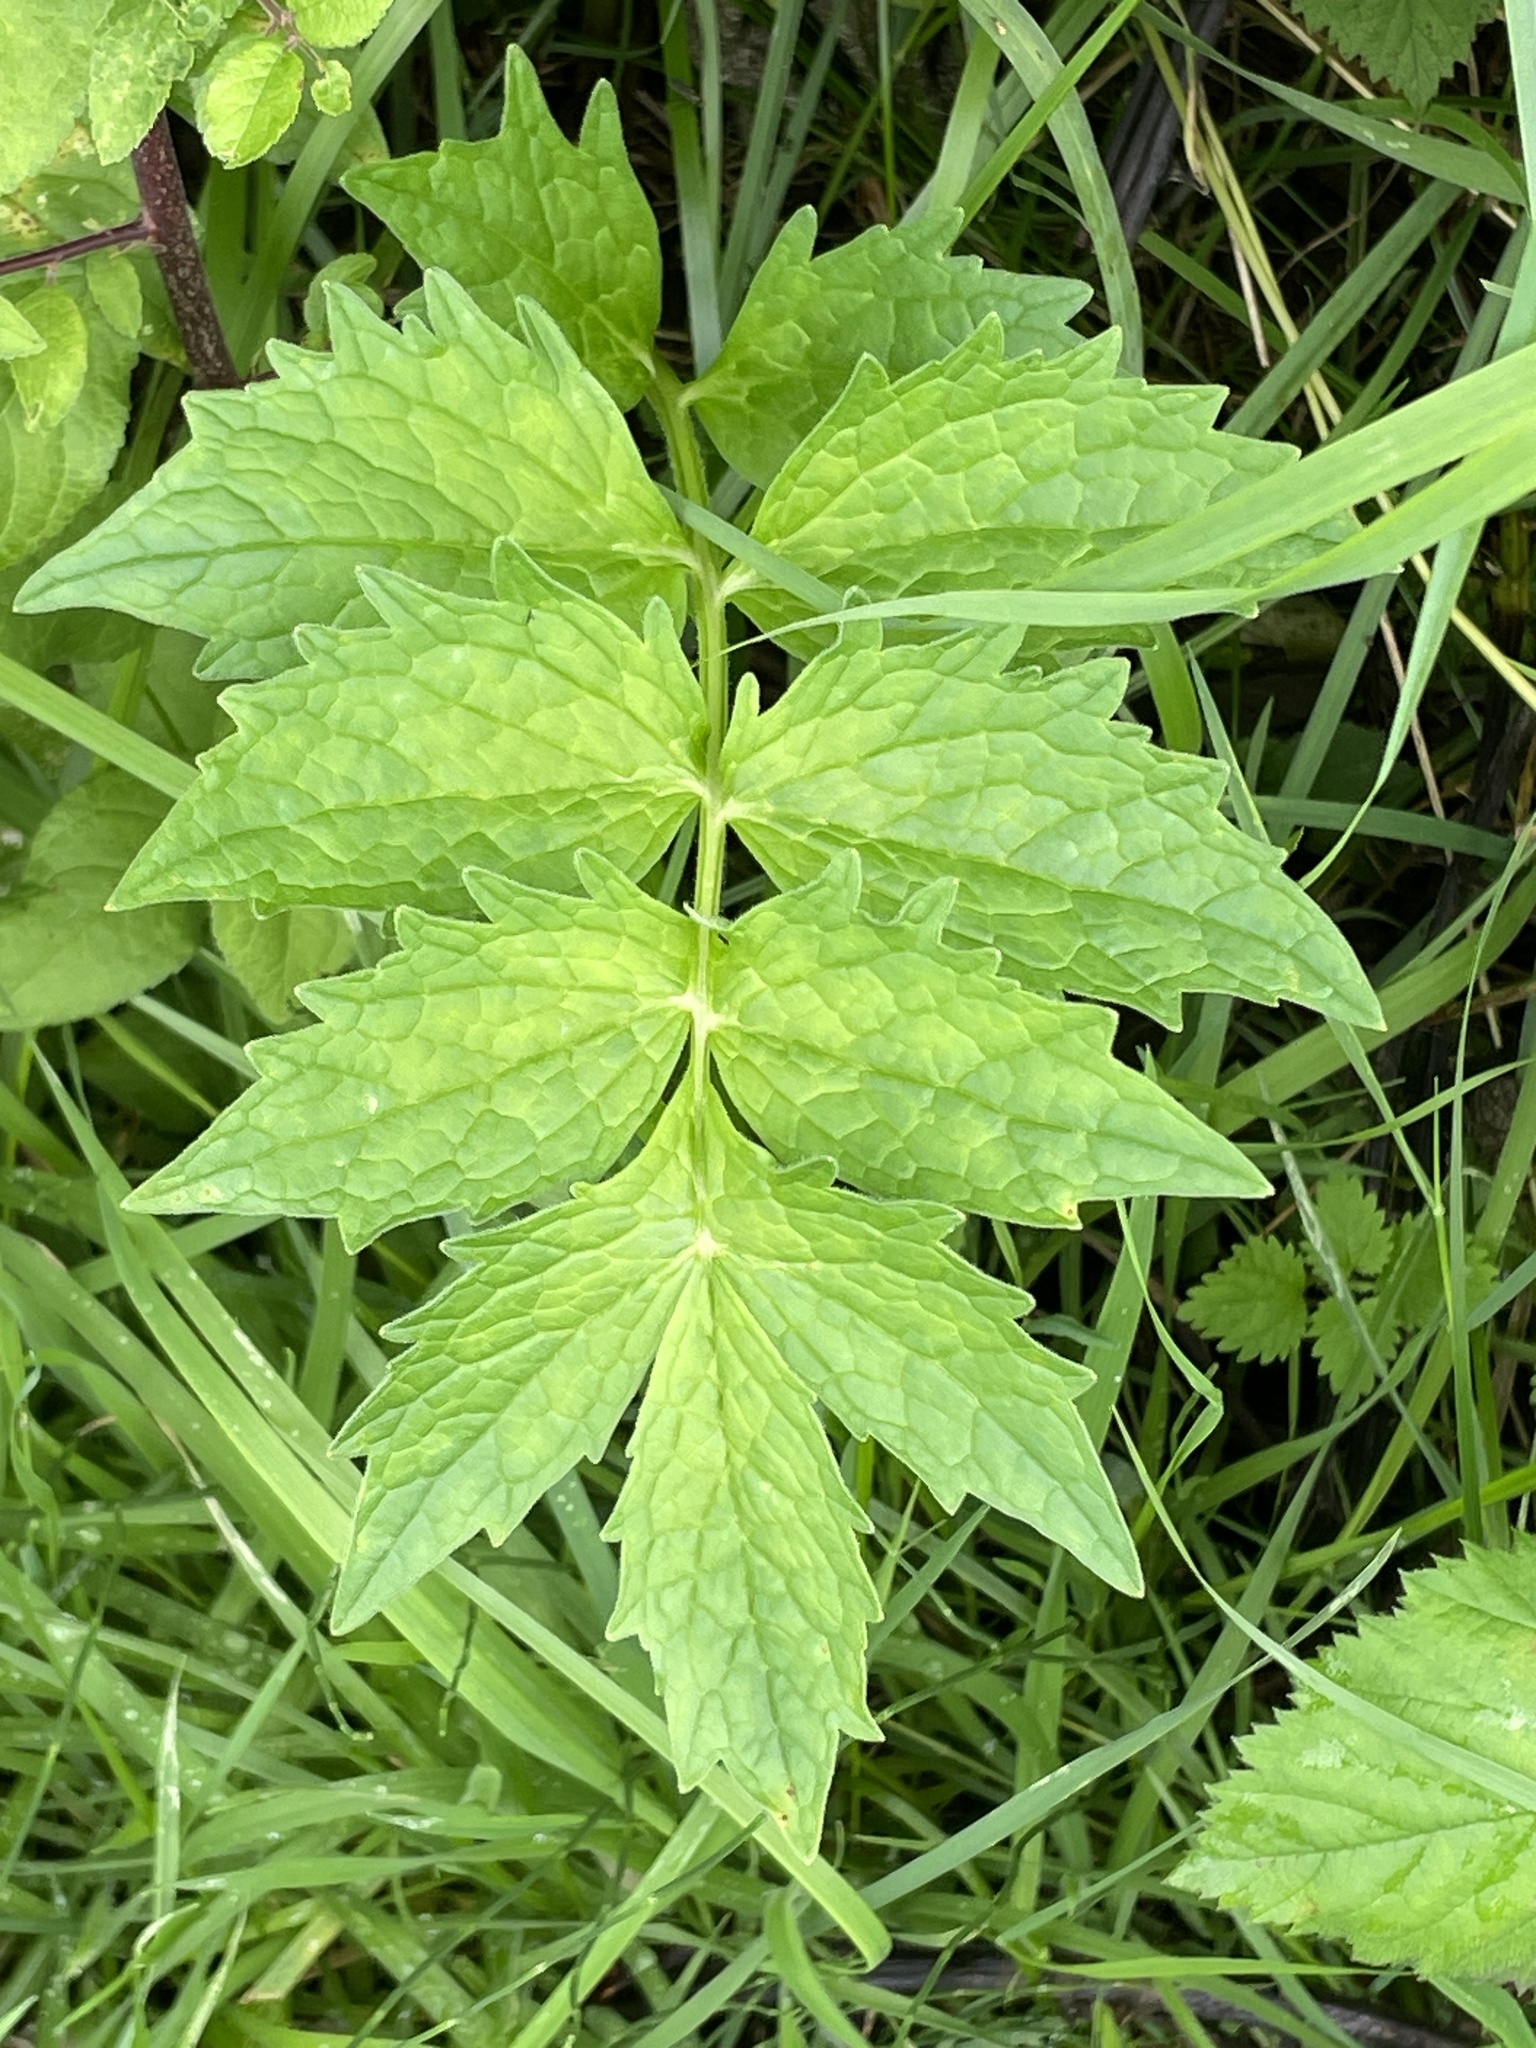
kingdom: Plantae
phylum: Tracheophyta
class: Magnoliopsida
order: Dipsacales
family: Caprifoliaceae
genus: Valeriana
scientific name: Valeriana officinalis
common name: Common valerian
